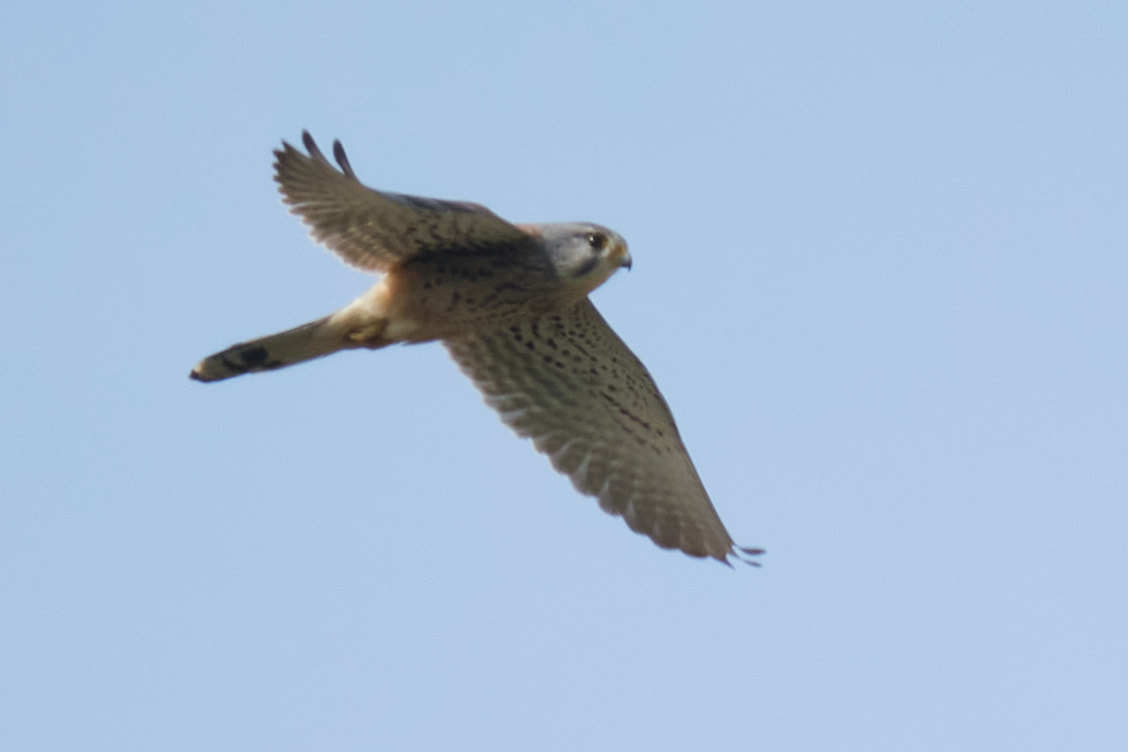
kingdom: Animalia
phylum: Chordata
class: Aves
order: Falconiformes
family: Falconidae
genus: Falco
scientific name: Falco tinnunculus
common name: Common kestrel
